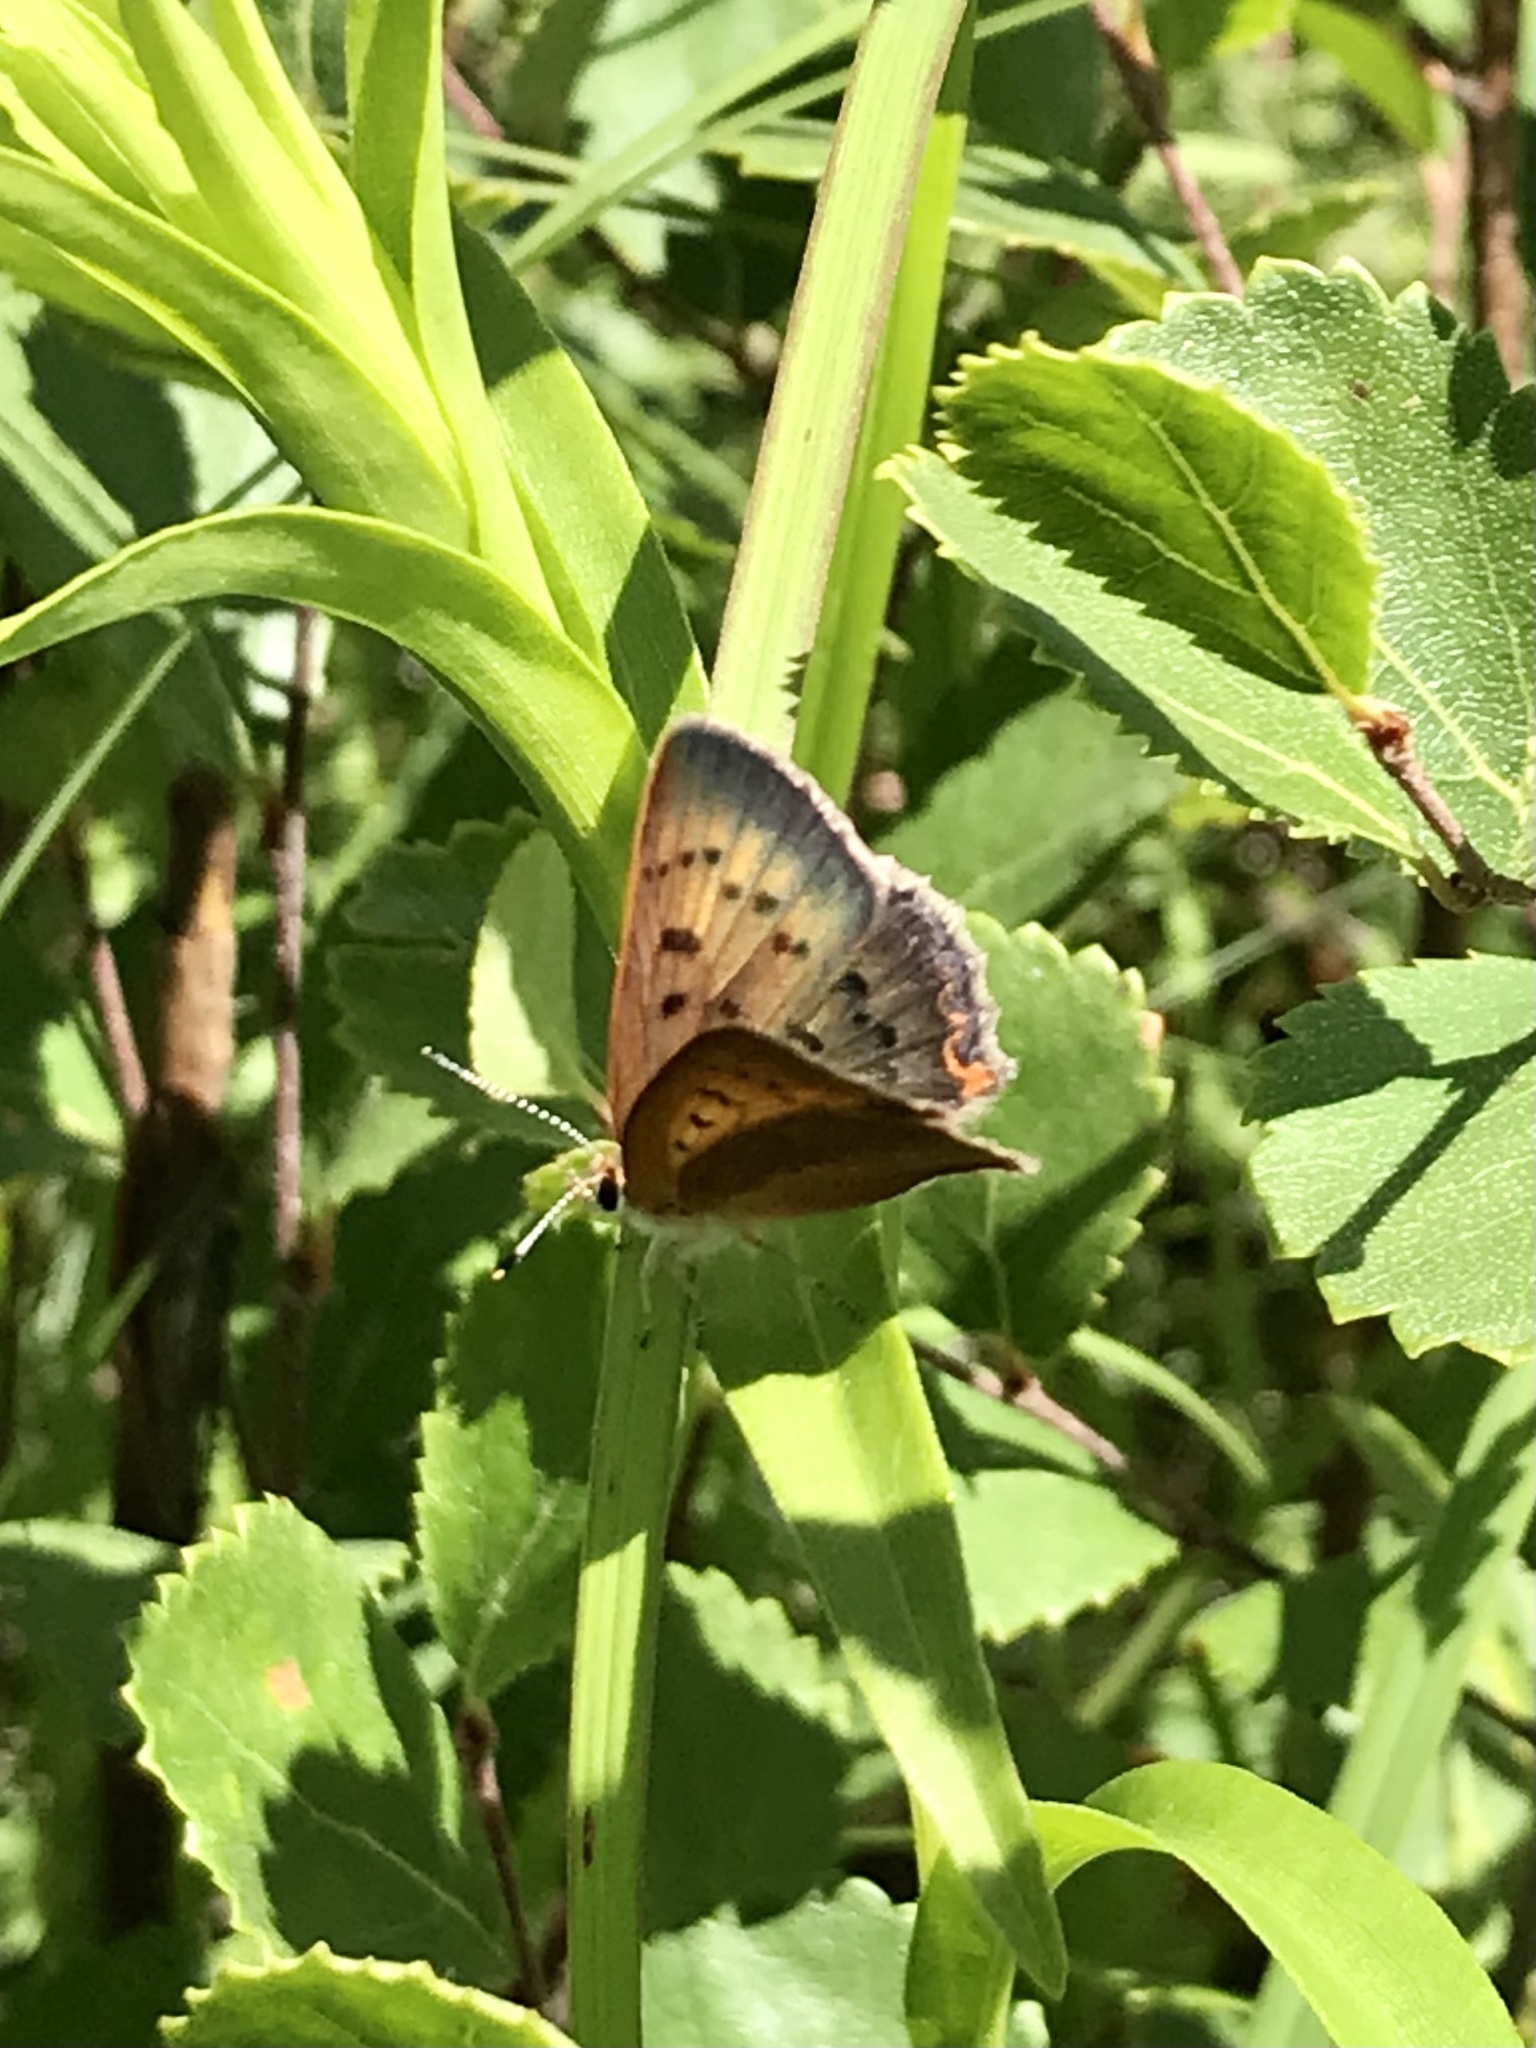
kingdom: Animalia
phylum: Arthropoda
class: Insecta
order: Lepidoptera
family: Lycaenidae
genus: Tharsalea
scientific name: Tharsalea dorcas
